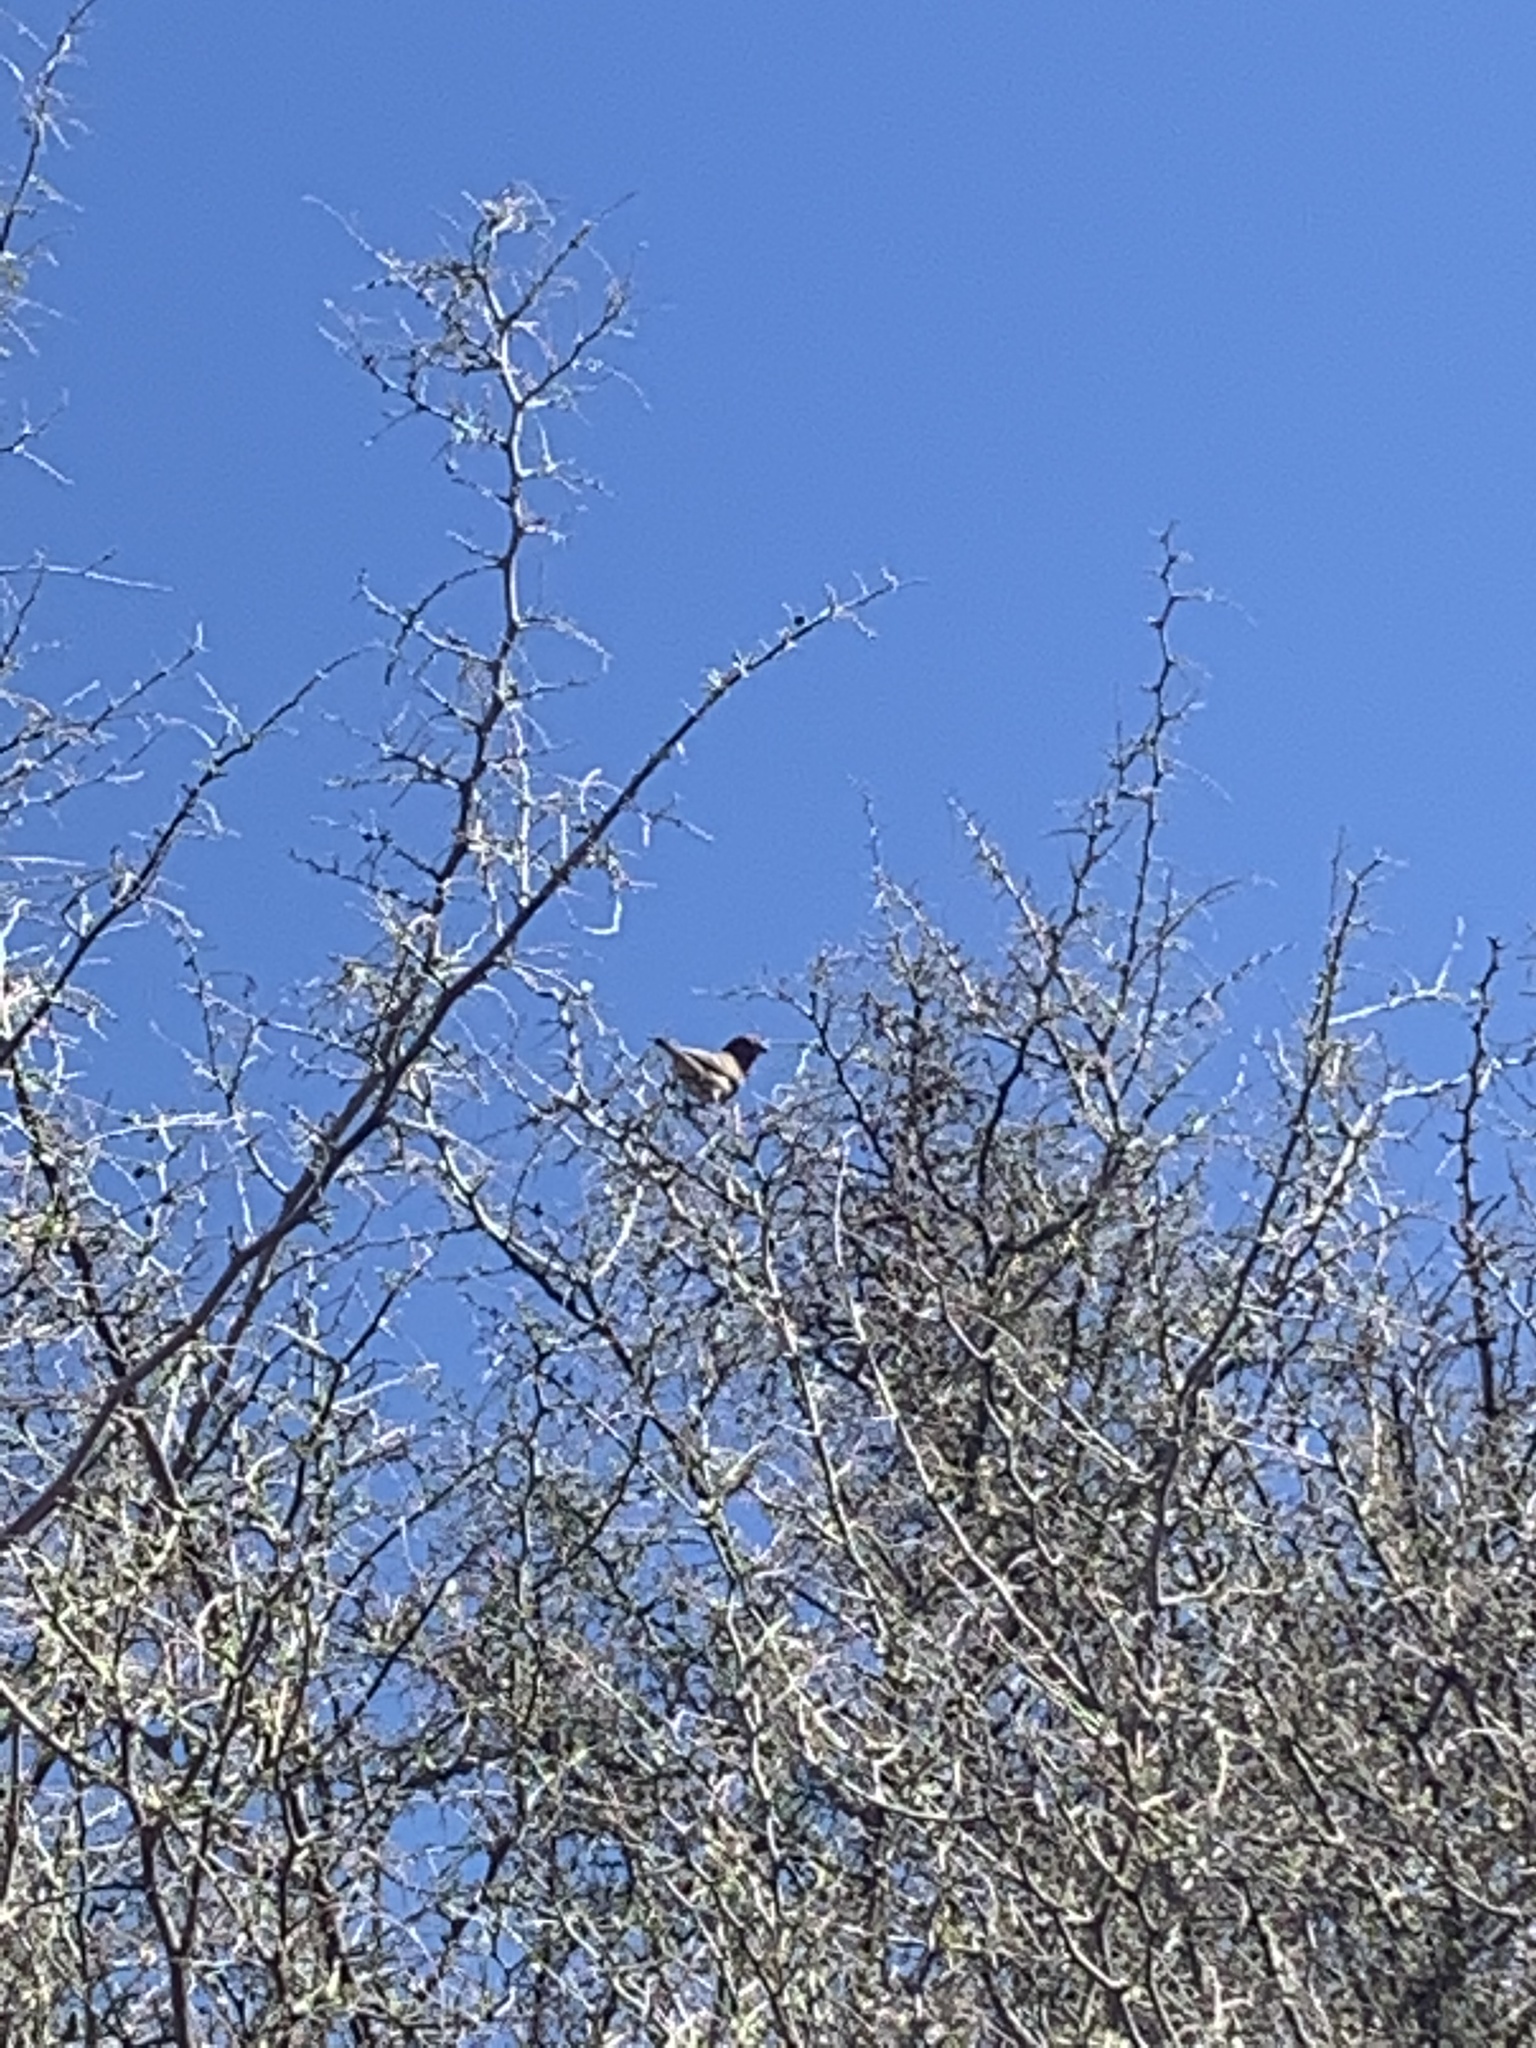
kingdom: Animalia
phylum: Chordata
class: Aves
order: Passeriformes
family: Fringillidae
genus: Haemorhous
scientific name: Haemorhous mexicanus
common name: House finch
